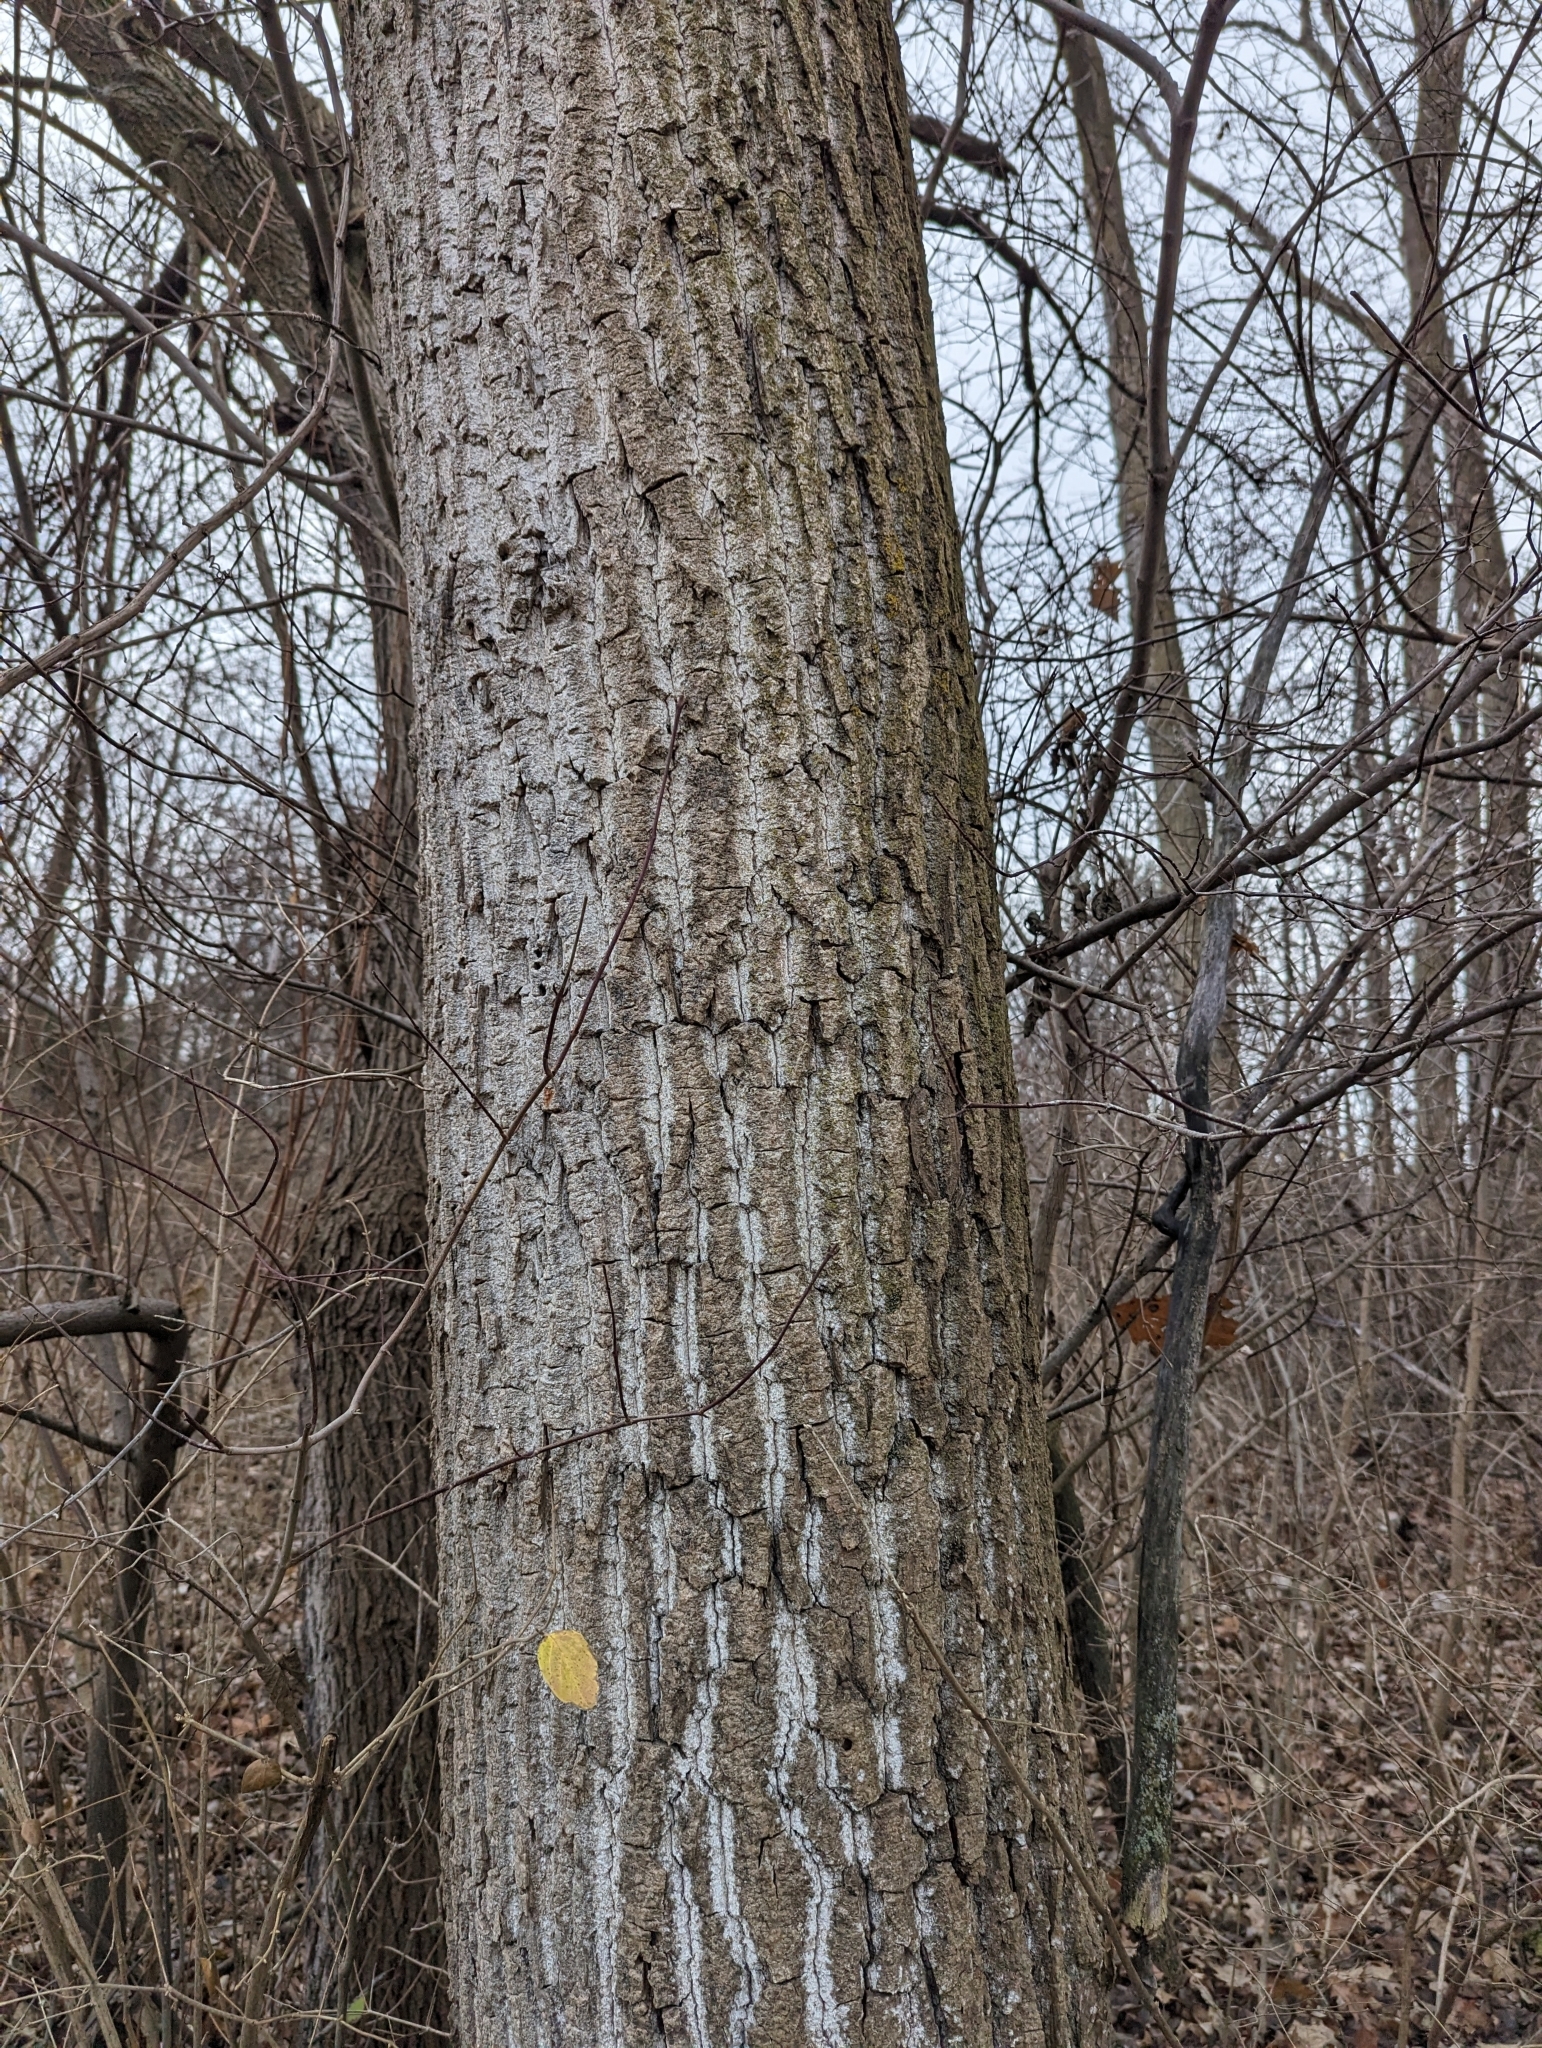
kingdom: Plantae
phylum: Tracheophyta
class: Magnoliopsida
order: Malpighiales
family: Salicaceae
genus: Populus
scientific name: Populus deltoides
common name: Eastern cottonwood
